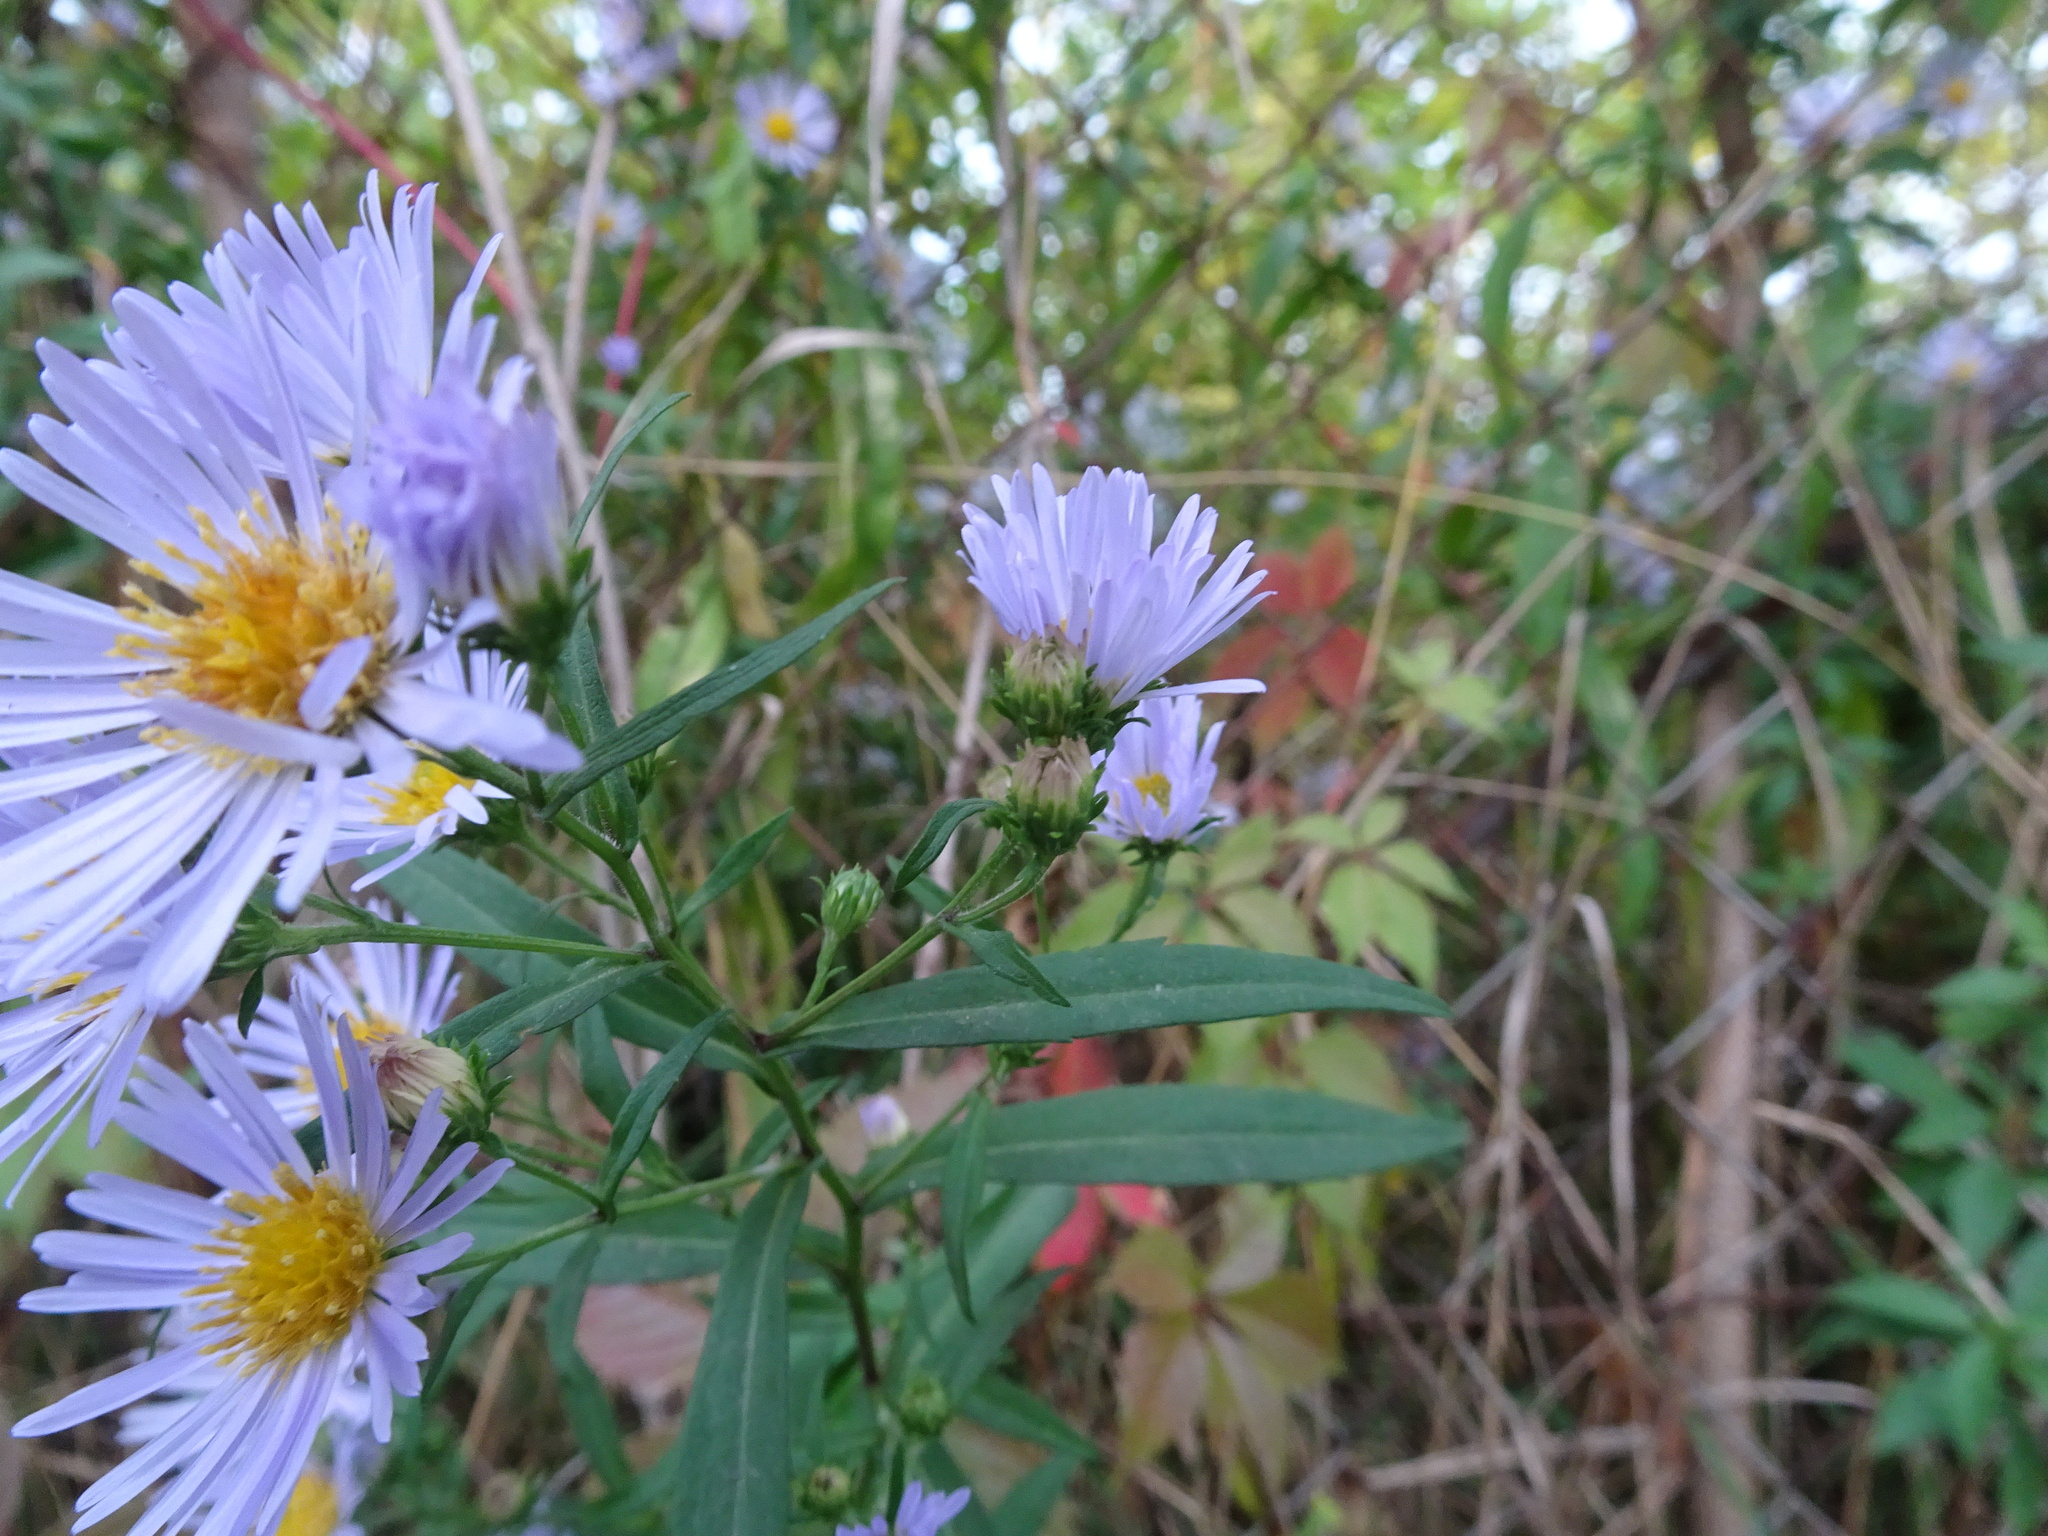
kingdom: Plantae
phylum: Tracheophyta
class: Magnoliopsida
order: Asterales
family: Asteraceae
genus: Symphyotrichum
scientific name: Symphyotrichum novi-belgii
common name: Michaelmas daisy
